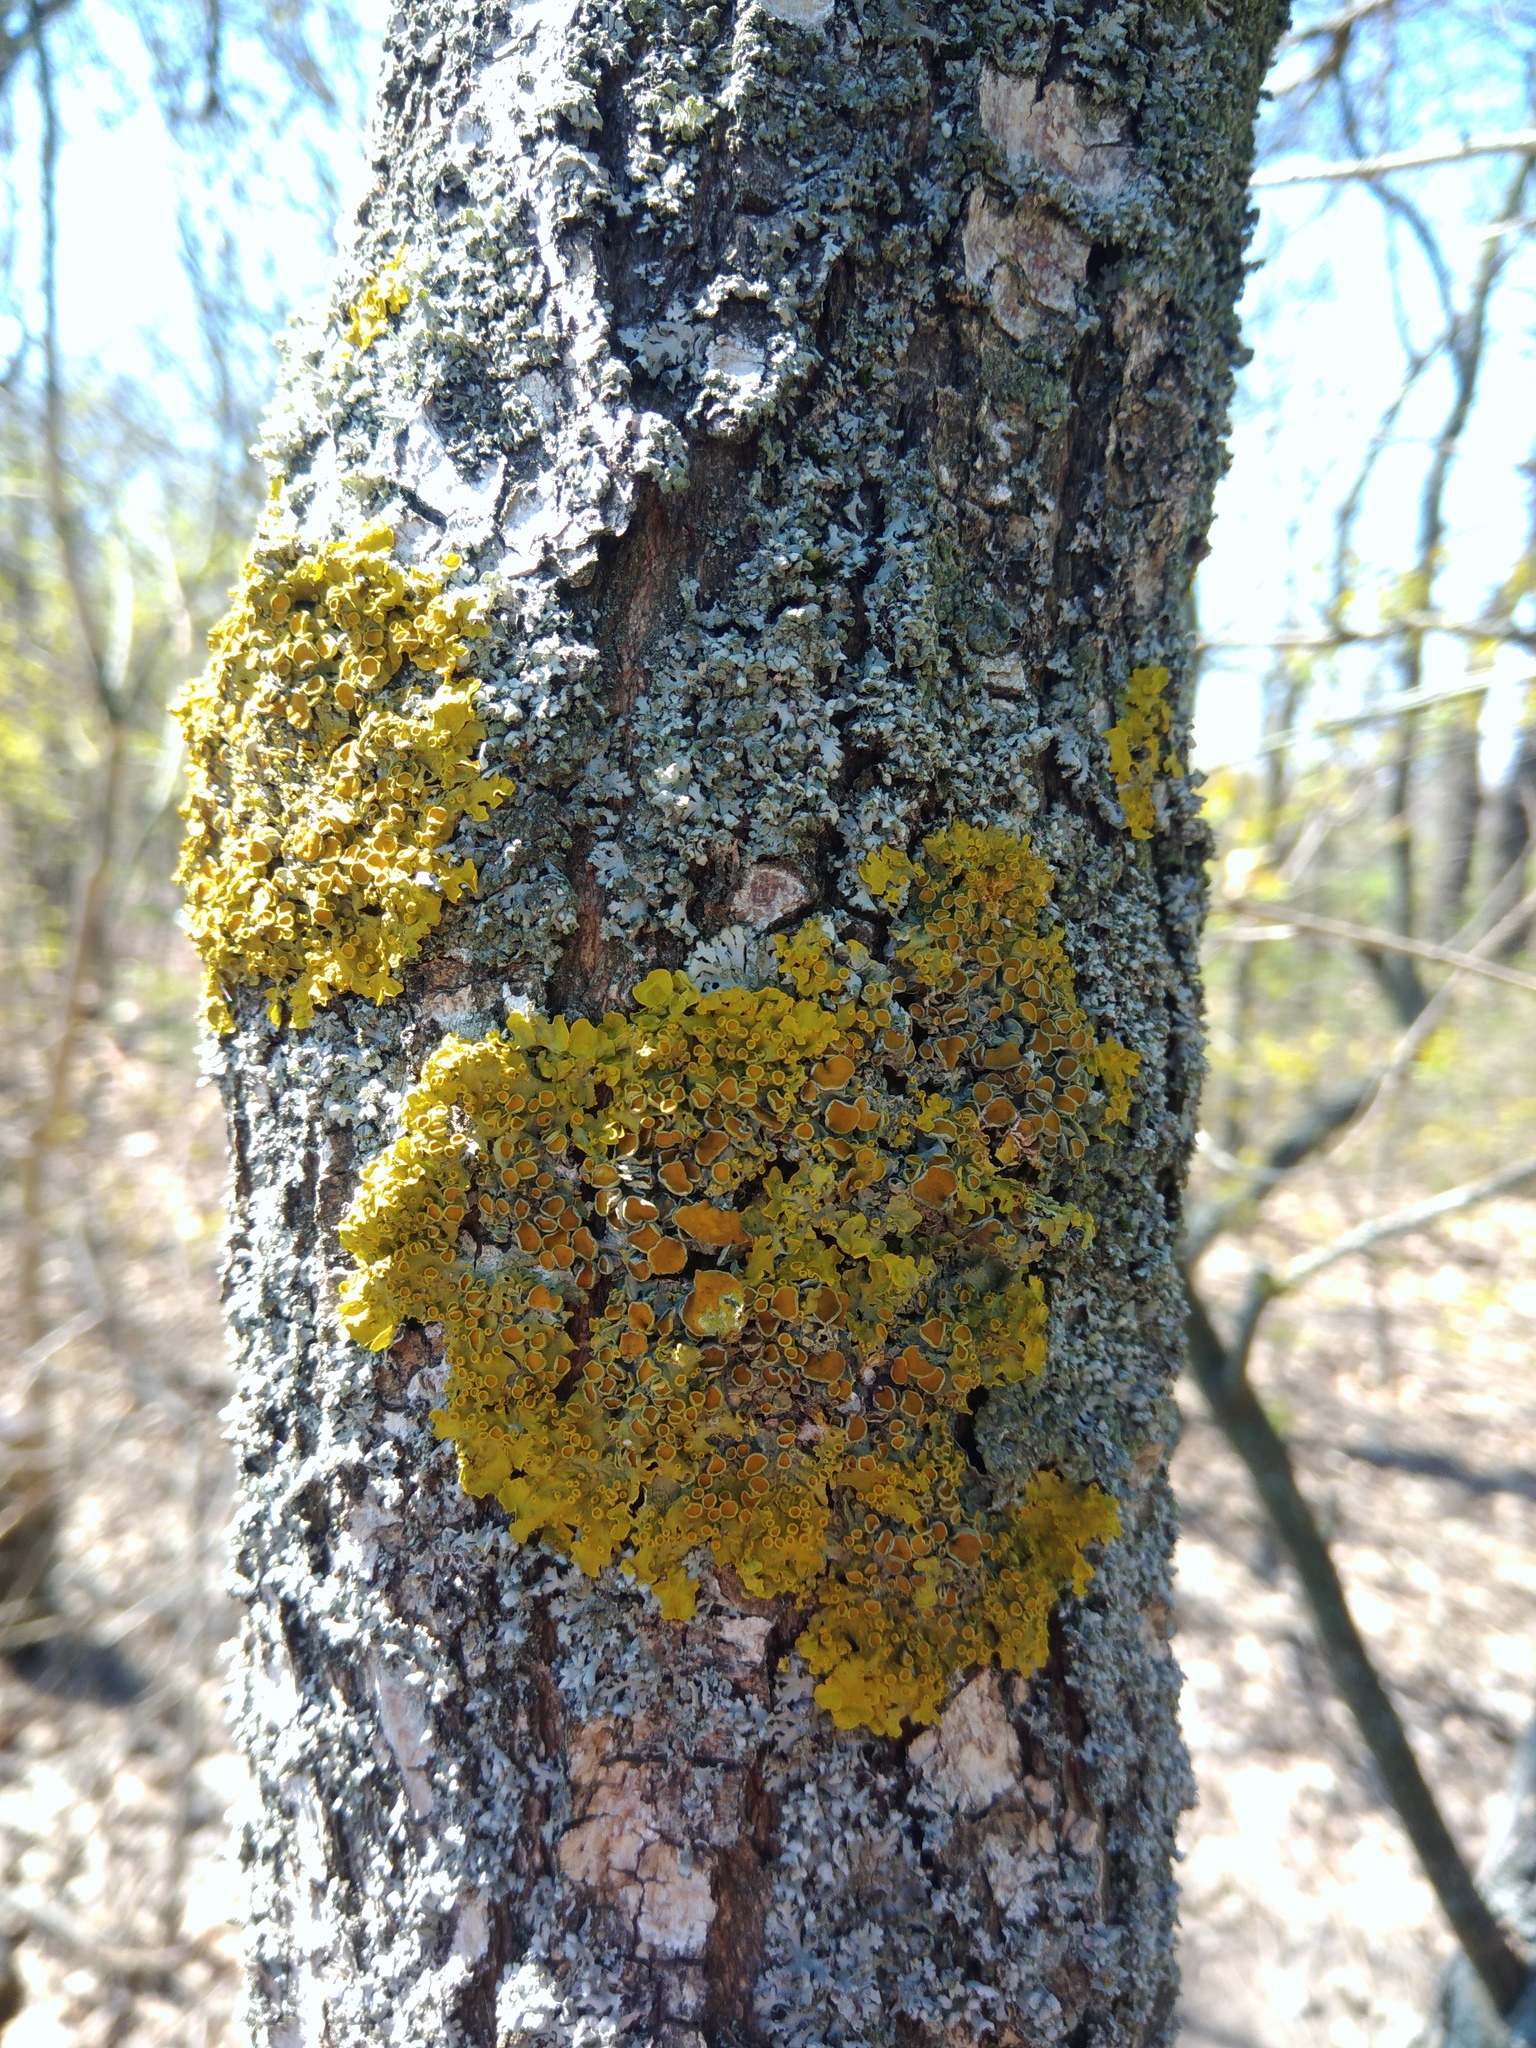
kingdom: Fungi
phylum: Ascomycota
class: Lecanoromycetes
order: Teloschistales
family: Teloschistaceae
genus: Xanthoria
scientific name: Xanthoria parietina
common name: Common orange lichen
